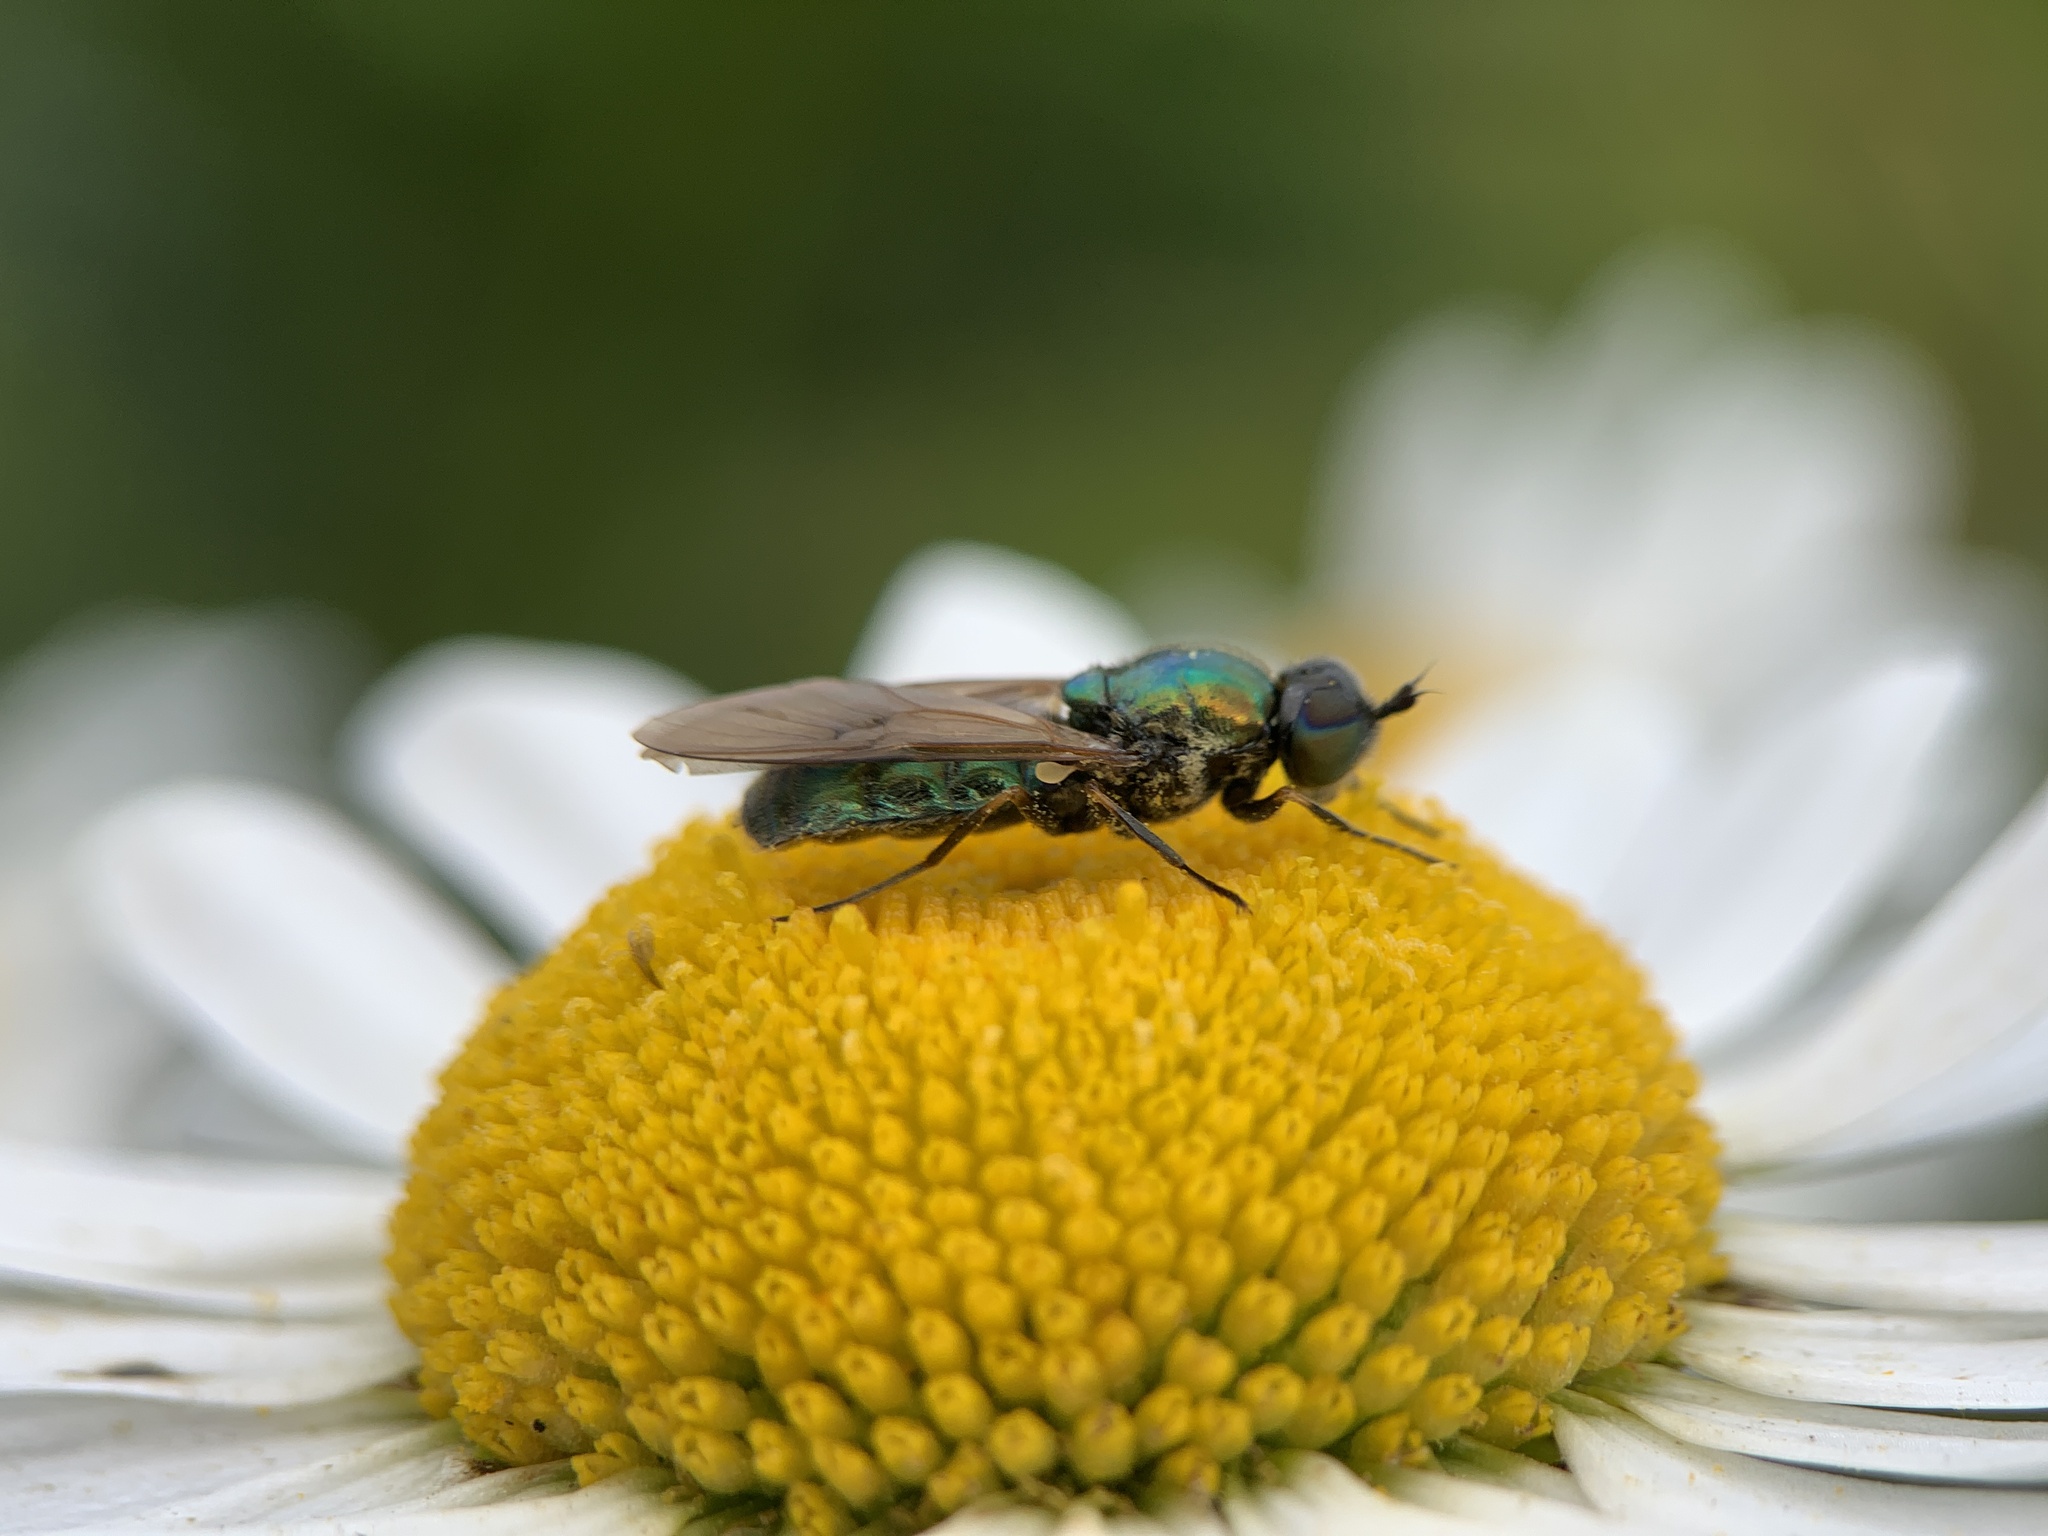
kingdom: Animalia
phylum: Arthropoda
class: Insecta
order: Diptera
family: Stratiomyidae
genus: Chloromyia
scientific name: Chloromyia formosa
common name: Soldier fly
